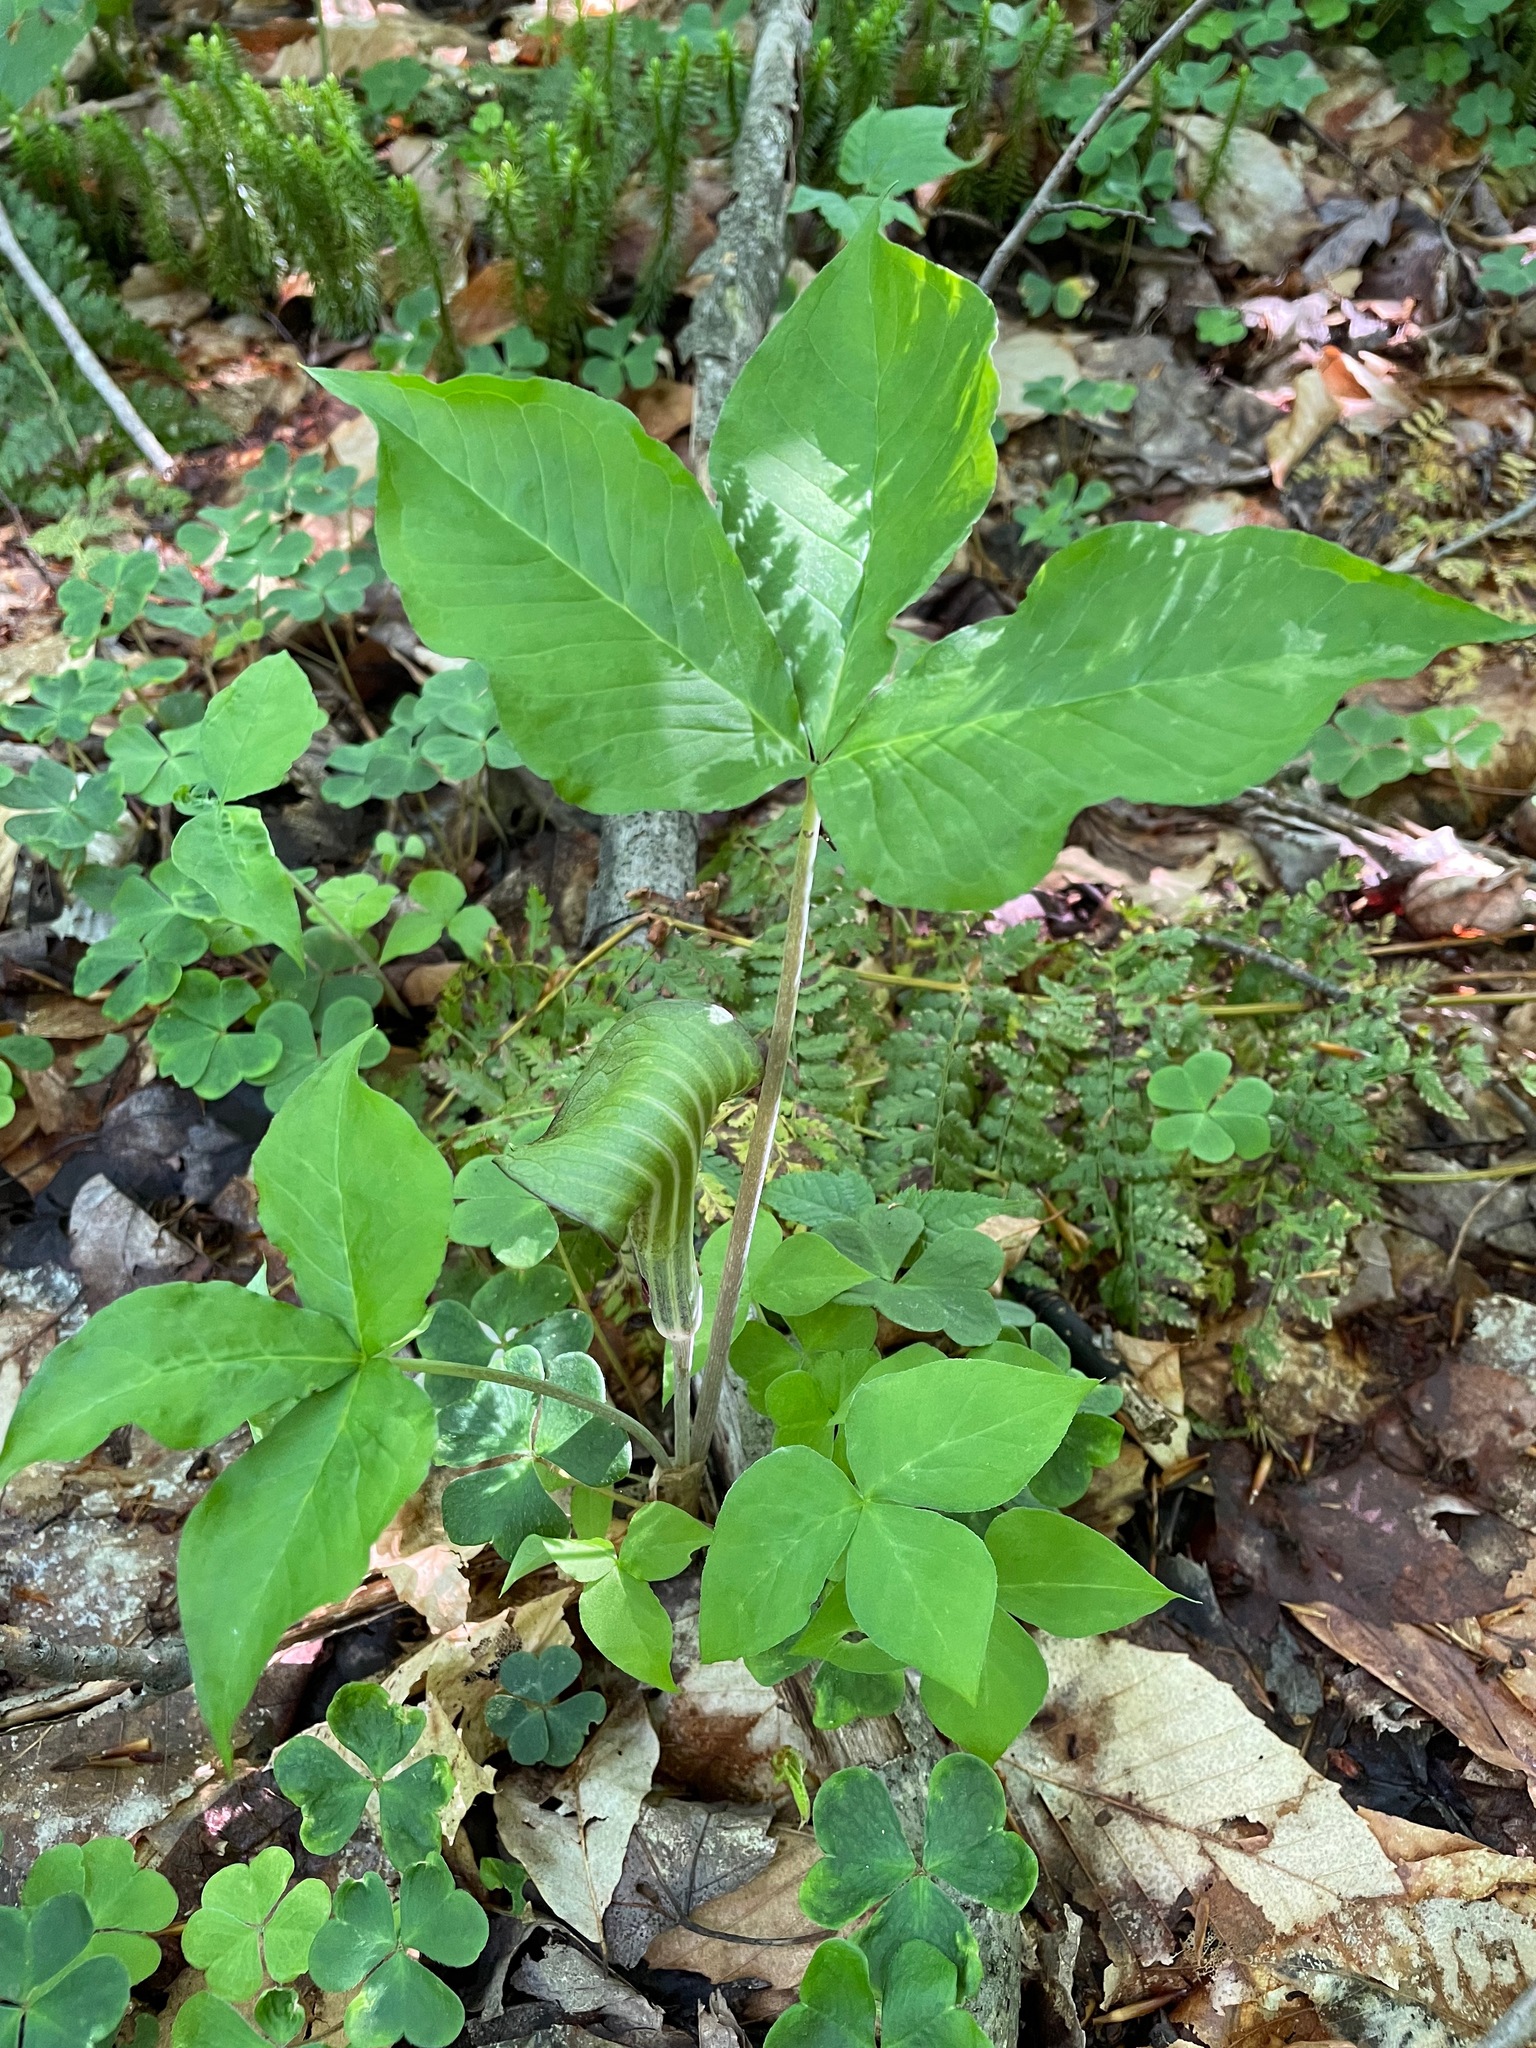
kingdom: Plantae
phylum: Tracheophyta
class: Liliopsida
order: Alismatales
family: Araceae
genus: Arisaema
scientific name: Arisaema triphyllum
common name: Jack-in-the-pulpit
